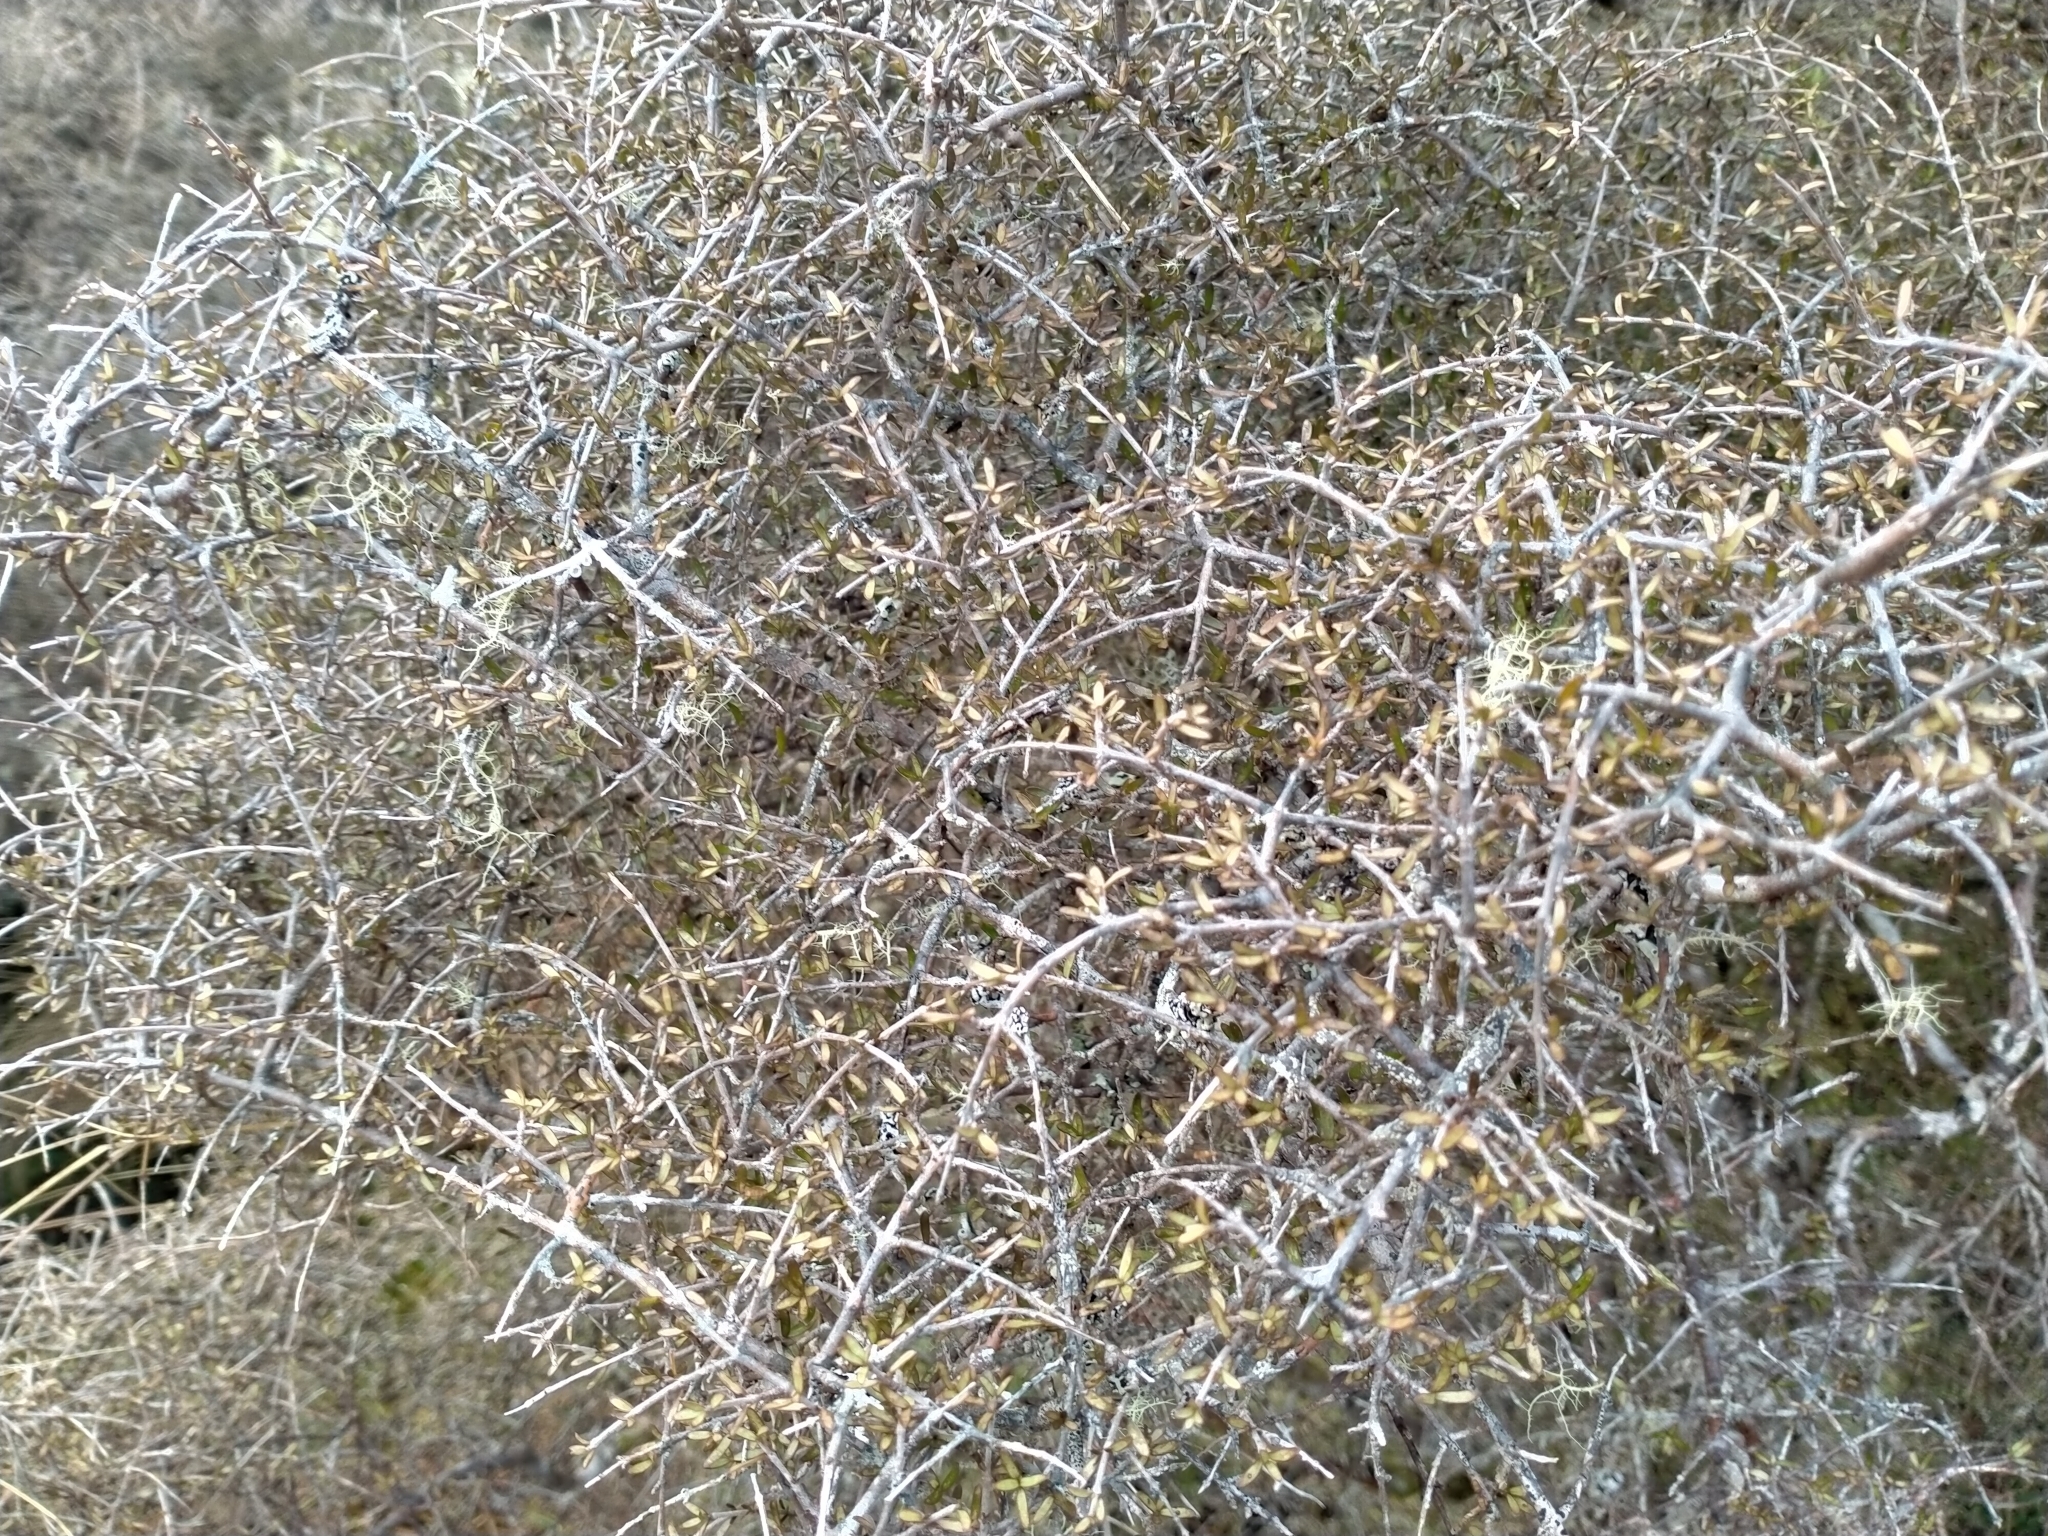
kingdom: Plantae
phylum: Tracheophyta
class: Magnoliopsida
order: Gentianales
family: Rubiaceae
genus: Coprosma
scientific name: Coprosma decurva
